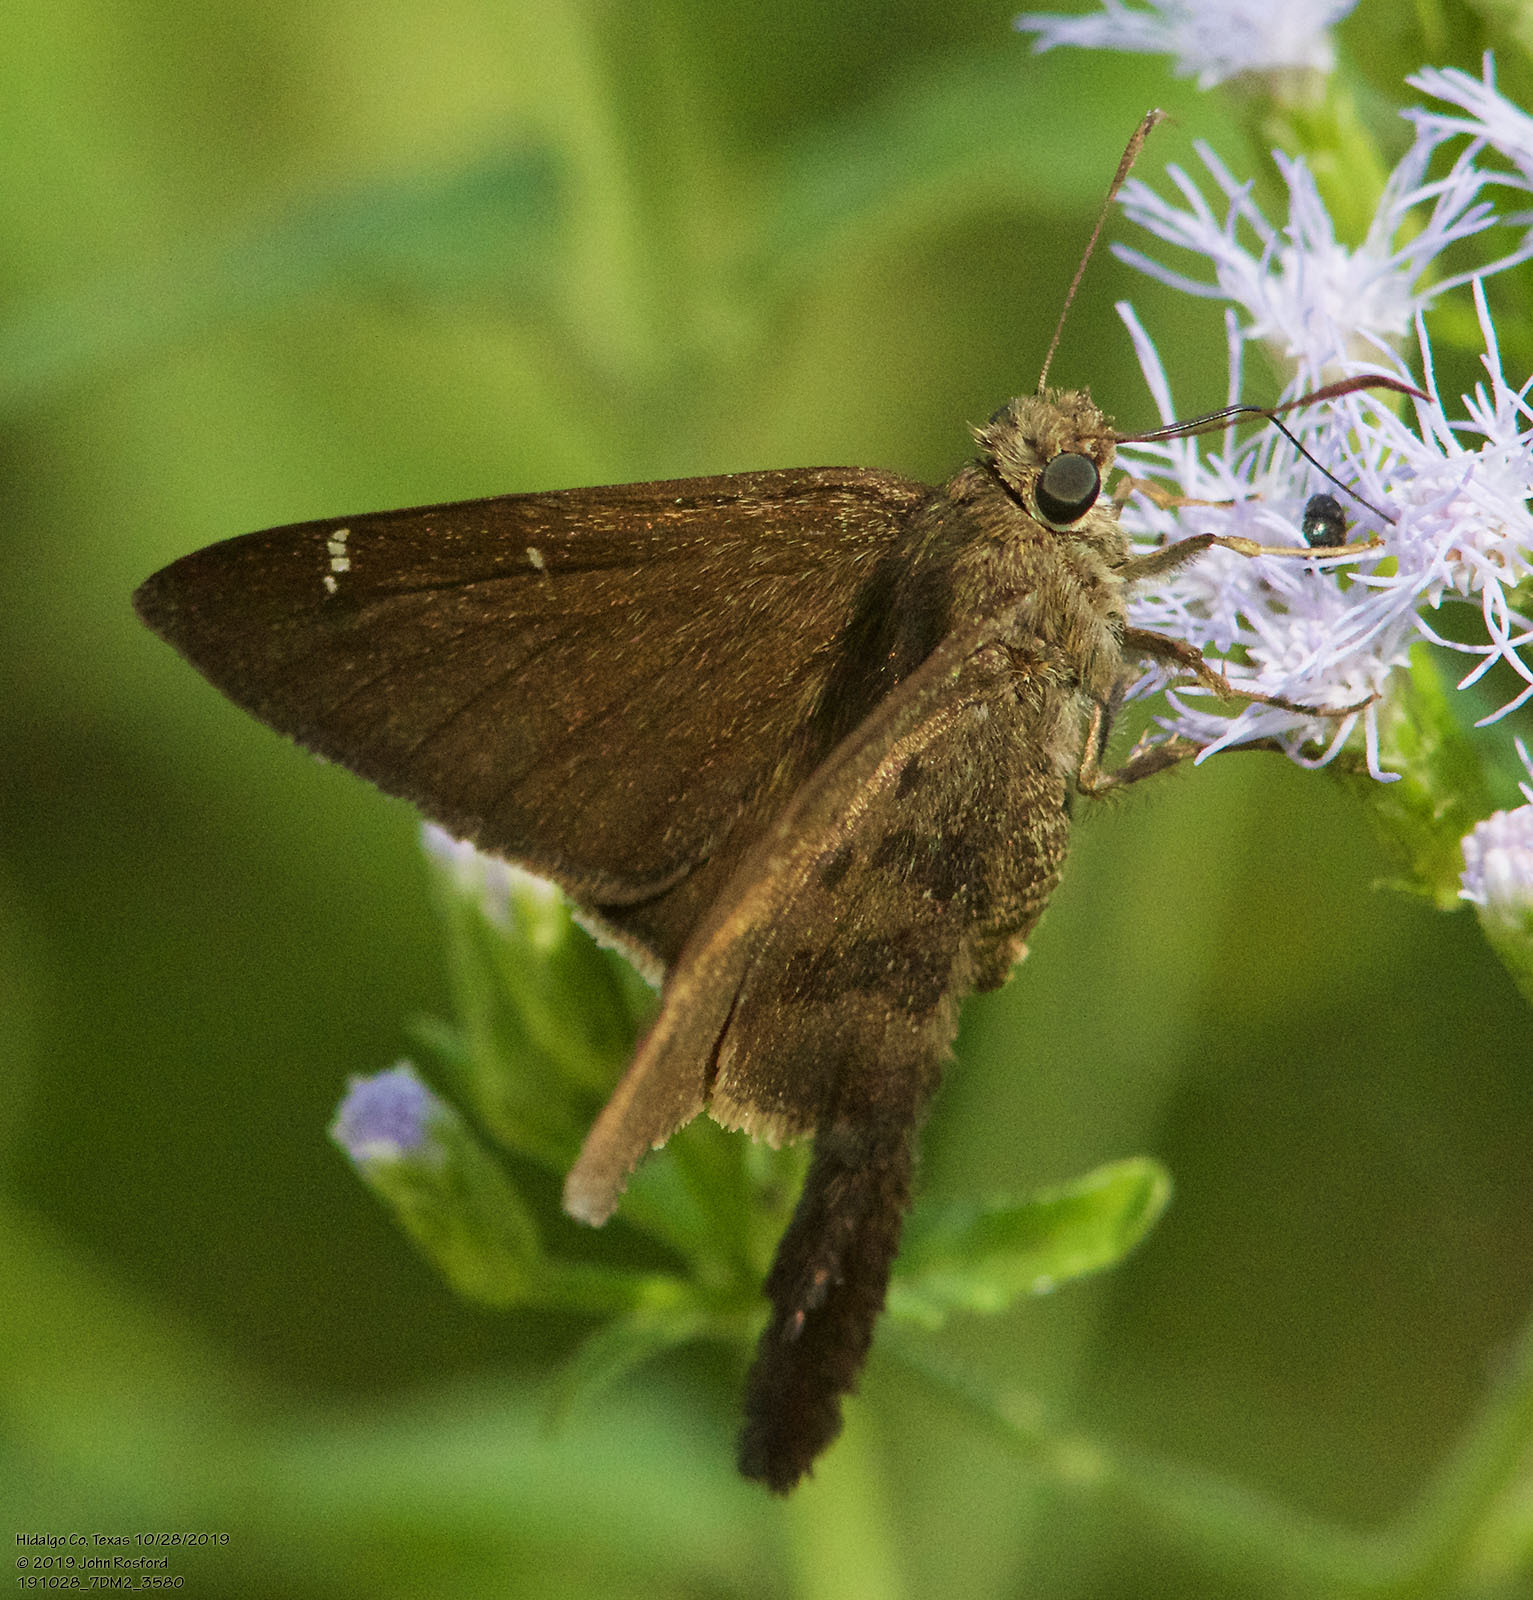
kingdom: Animalia
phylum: Arthropoda
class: Insecta
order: Lepidoptera
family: Hesperiidae
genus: Urbanus
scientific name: Urbanus procne
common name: Brown longtail
